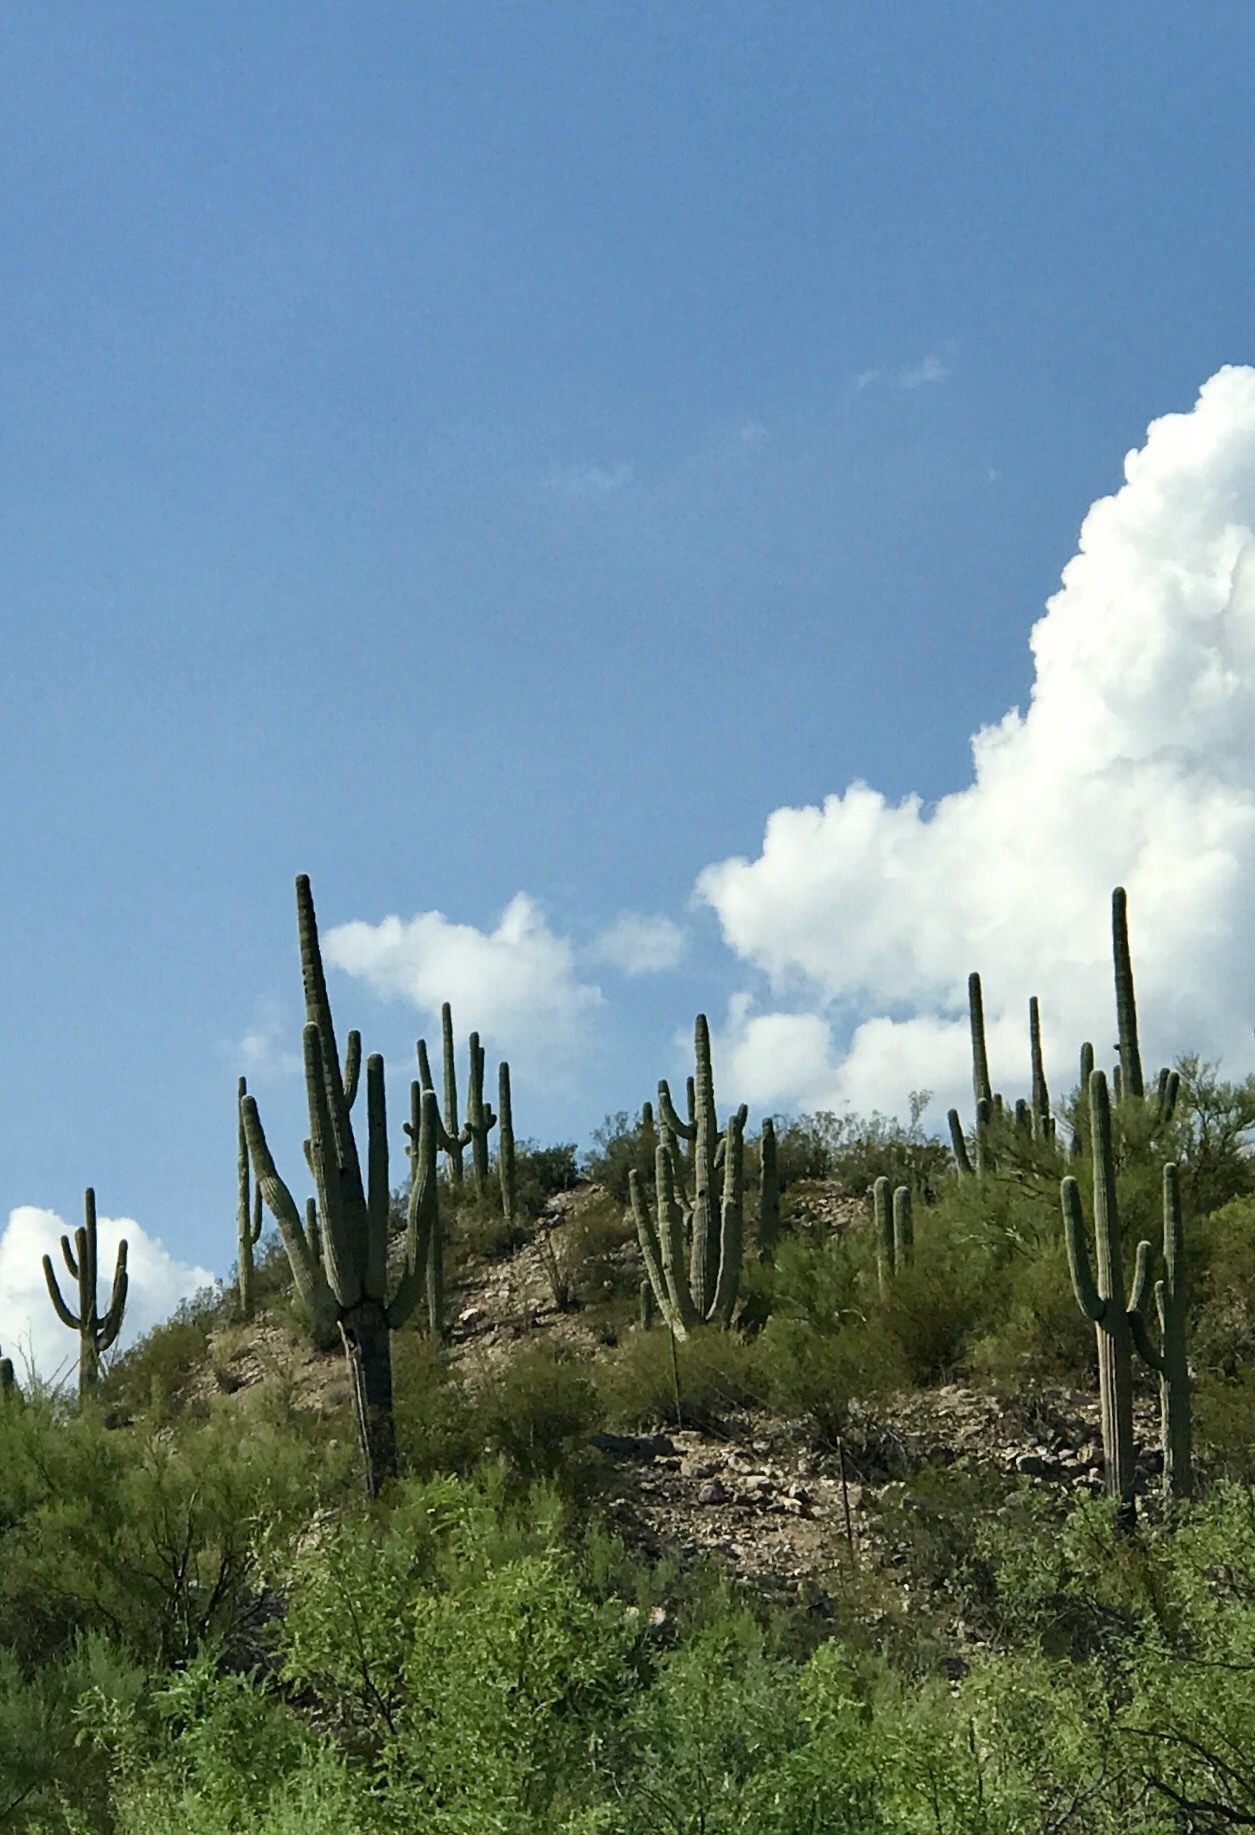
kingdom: Plantae
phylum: Tracheophyta
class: Magnoliopsida
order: Caryophyllales
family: Cactaceae
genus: Carnegiea
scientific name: Carnegiea gigantea
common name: Saguaro
